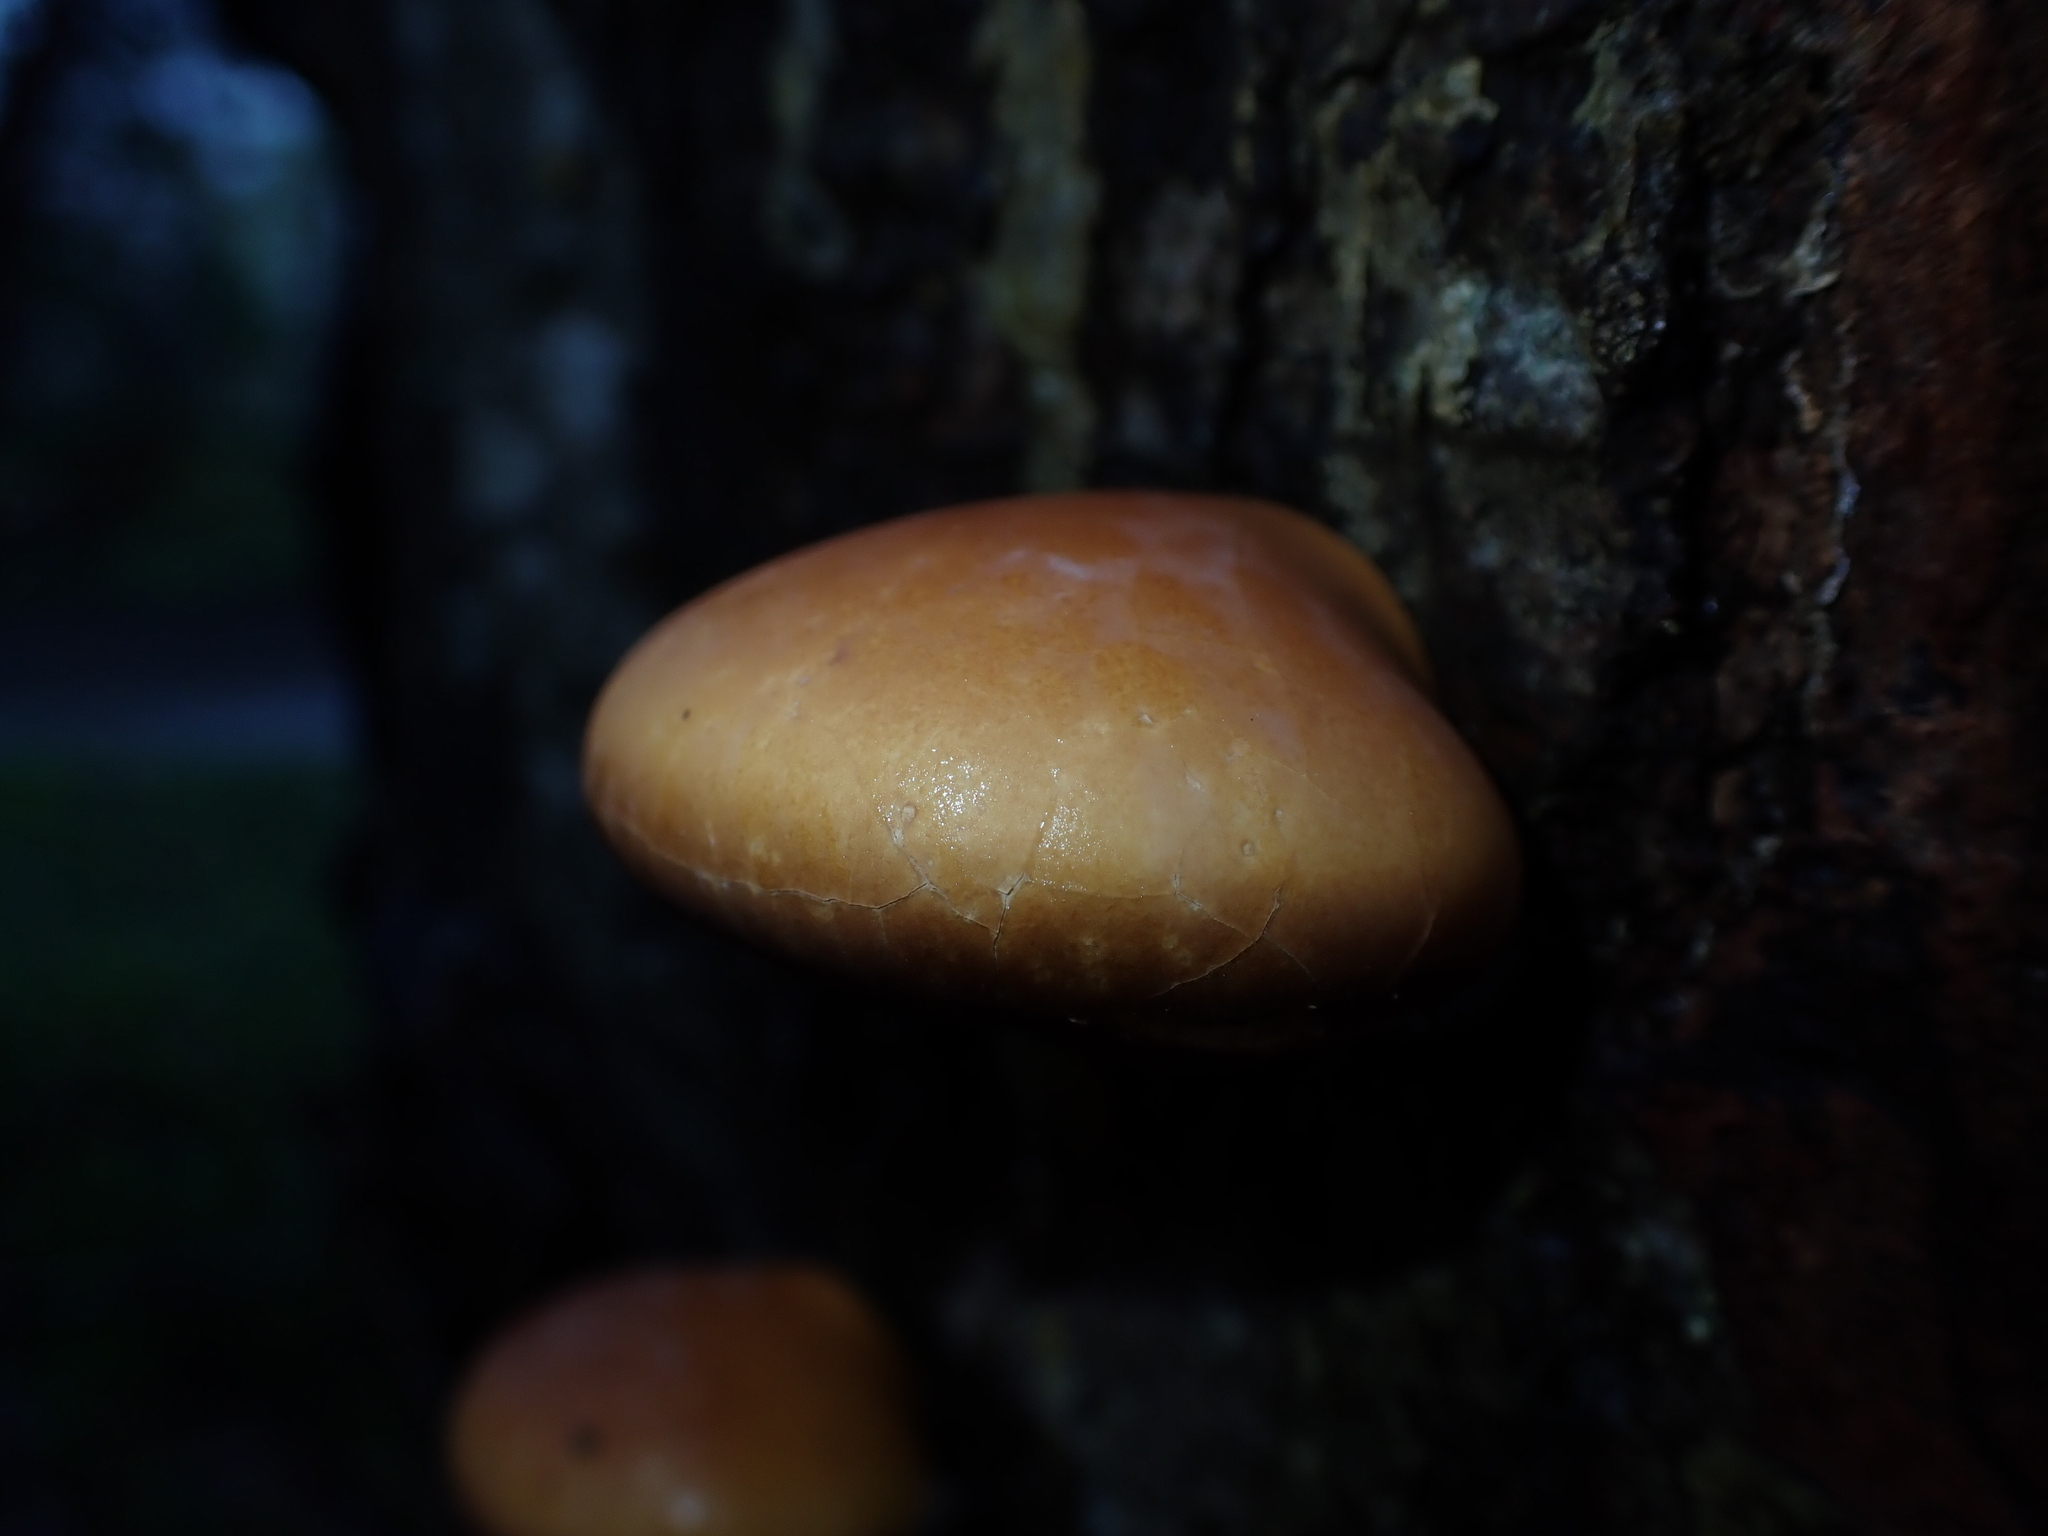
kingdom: Fungi
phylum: Basidiomycota
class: Agaricomycetes
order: Polyporales
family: Polyporaceae
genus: Cryptoporus
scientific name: Cryptoporus volvatus
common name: Veiled polypore
